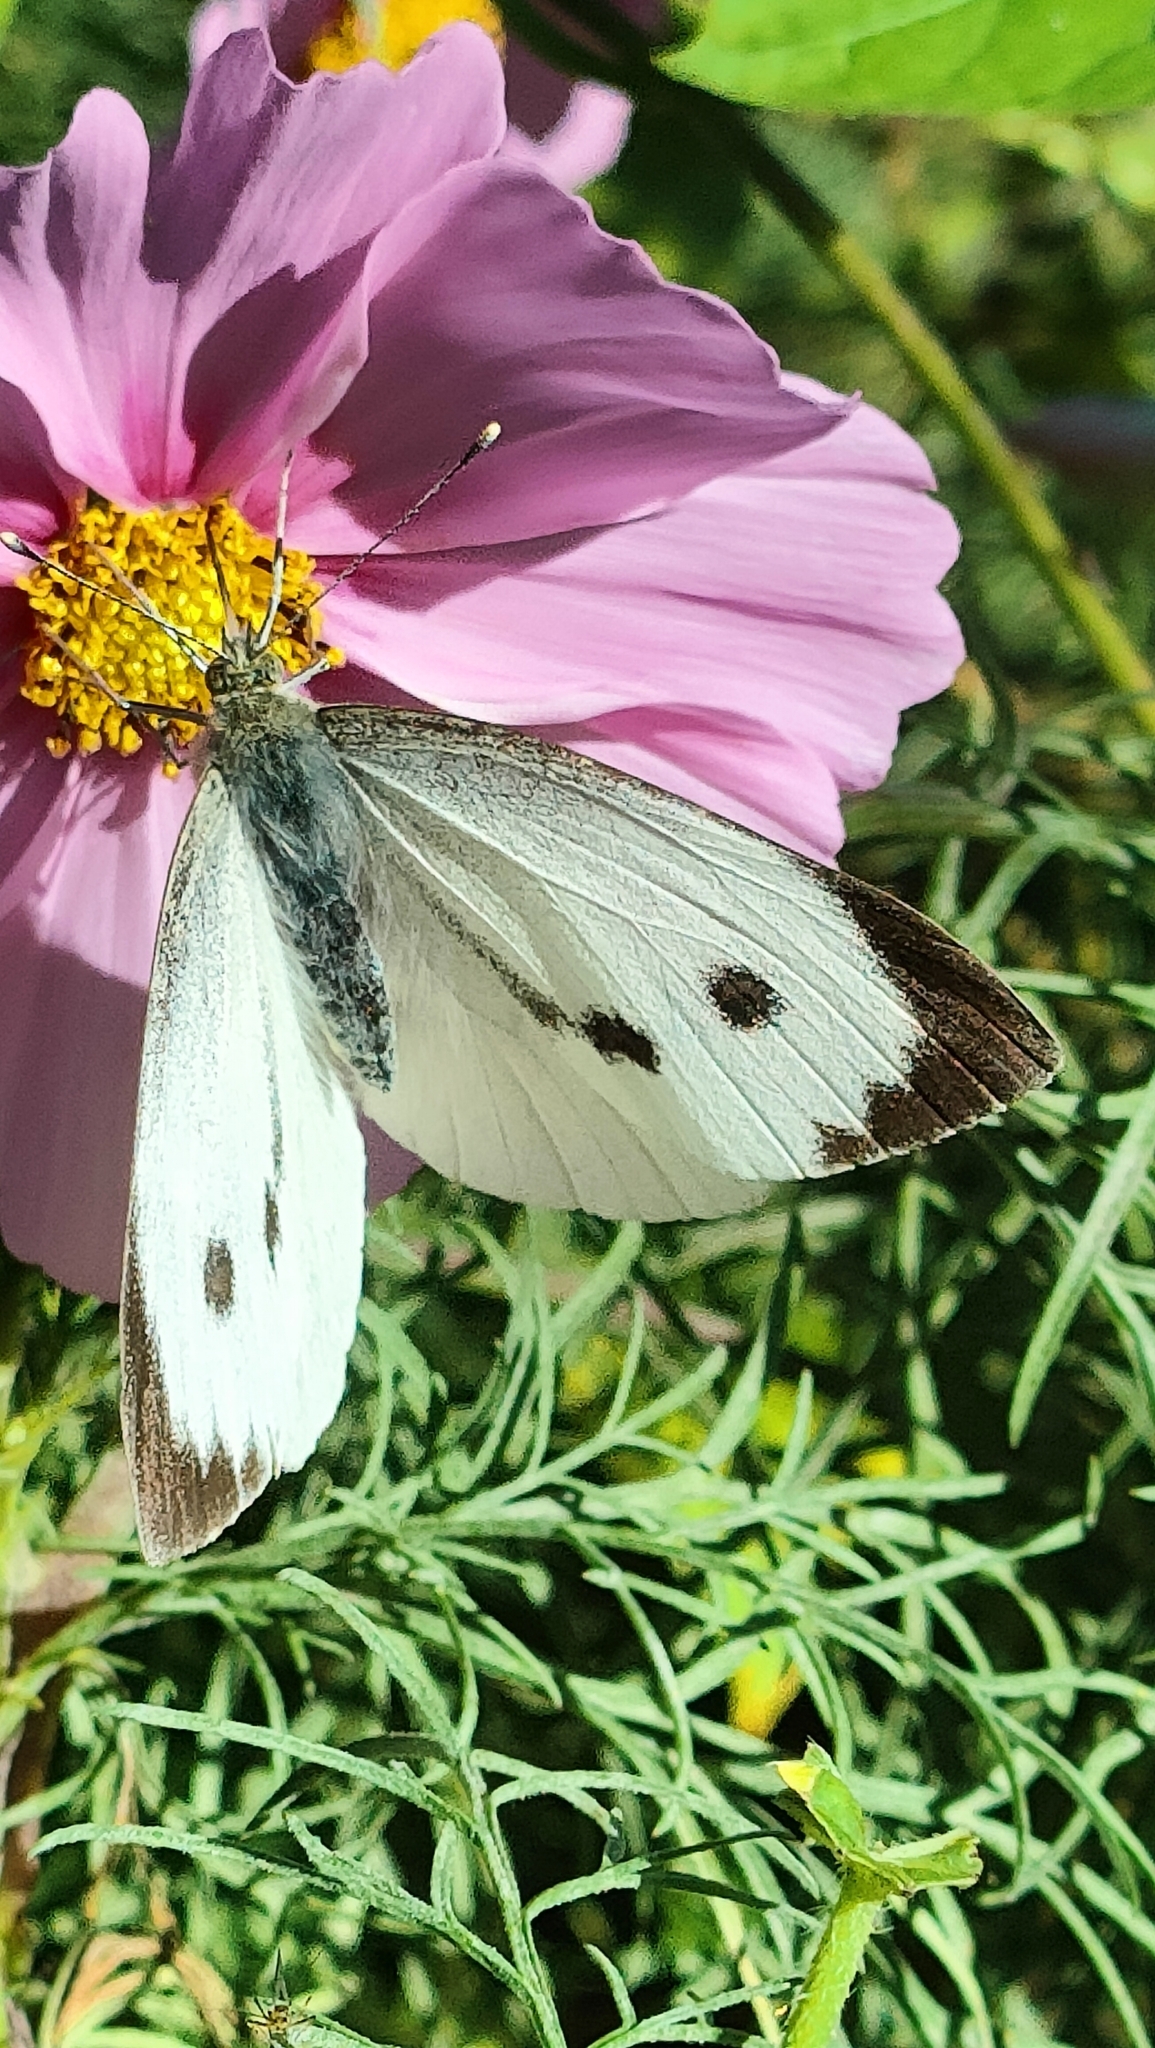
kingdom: Animalia
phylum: Arthropoda
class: Insecta
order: Lepidoptera
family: Pieridae
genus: Pieris
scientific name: Pieris brassicae
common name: Large white
